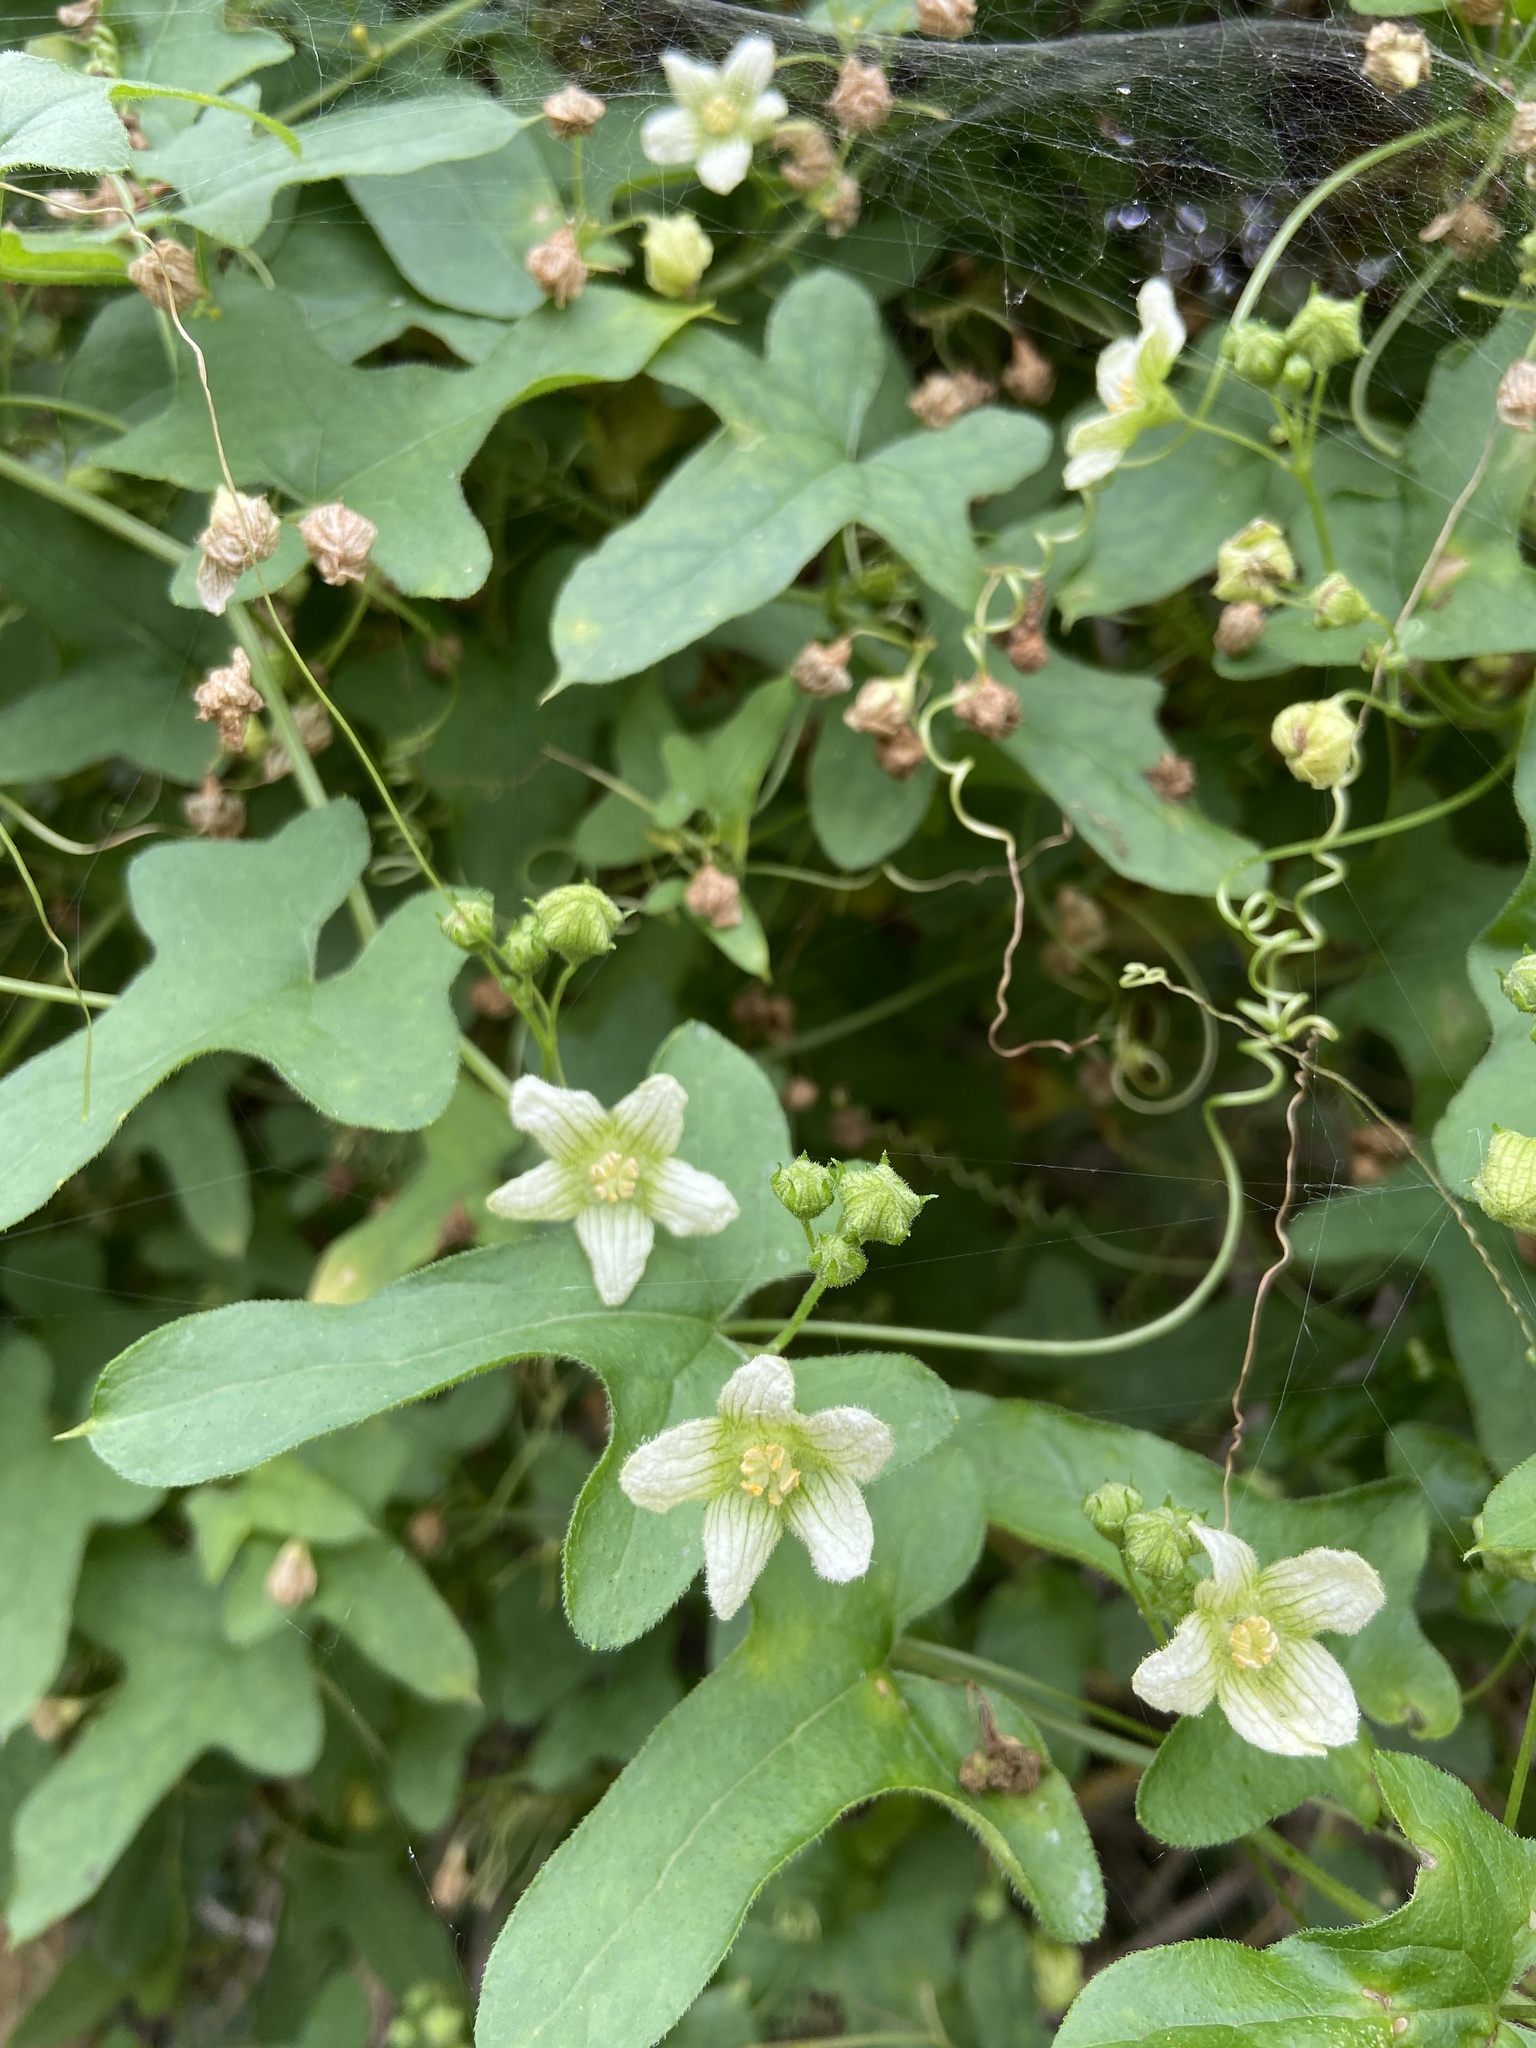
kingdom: Plantae
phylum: Tracheophyta
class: Magnoliopsida
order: Cucurbitales
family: Cucurbitaceae
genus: Bryonia
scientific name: Bryonia cretica
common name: Cretan bryony
